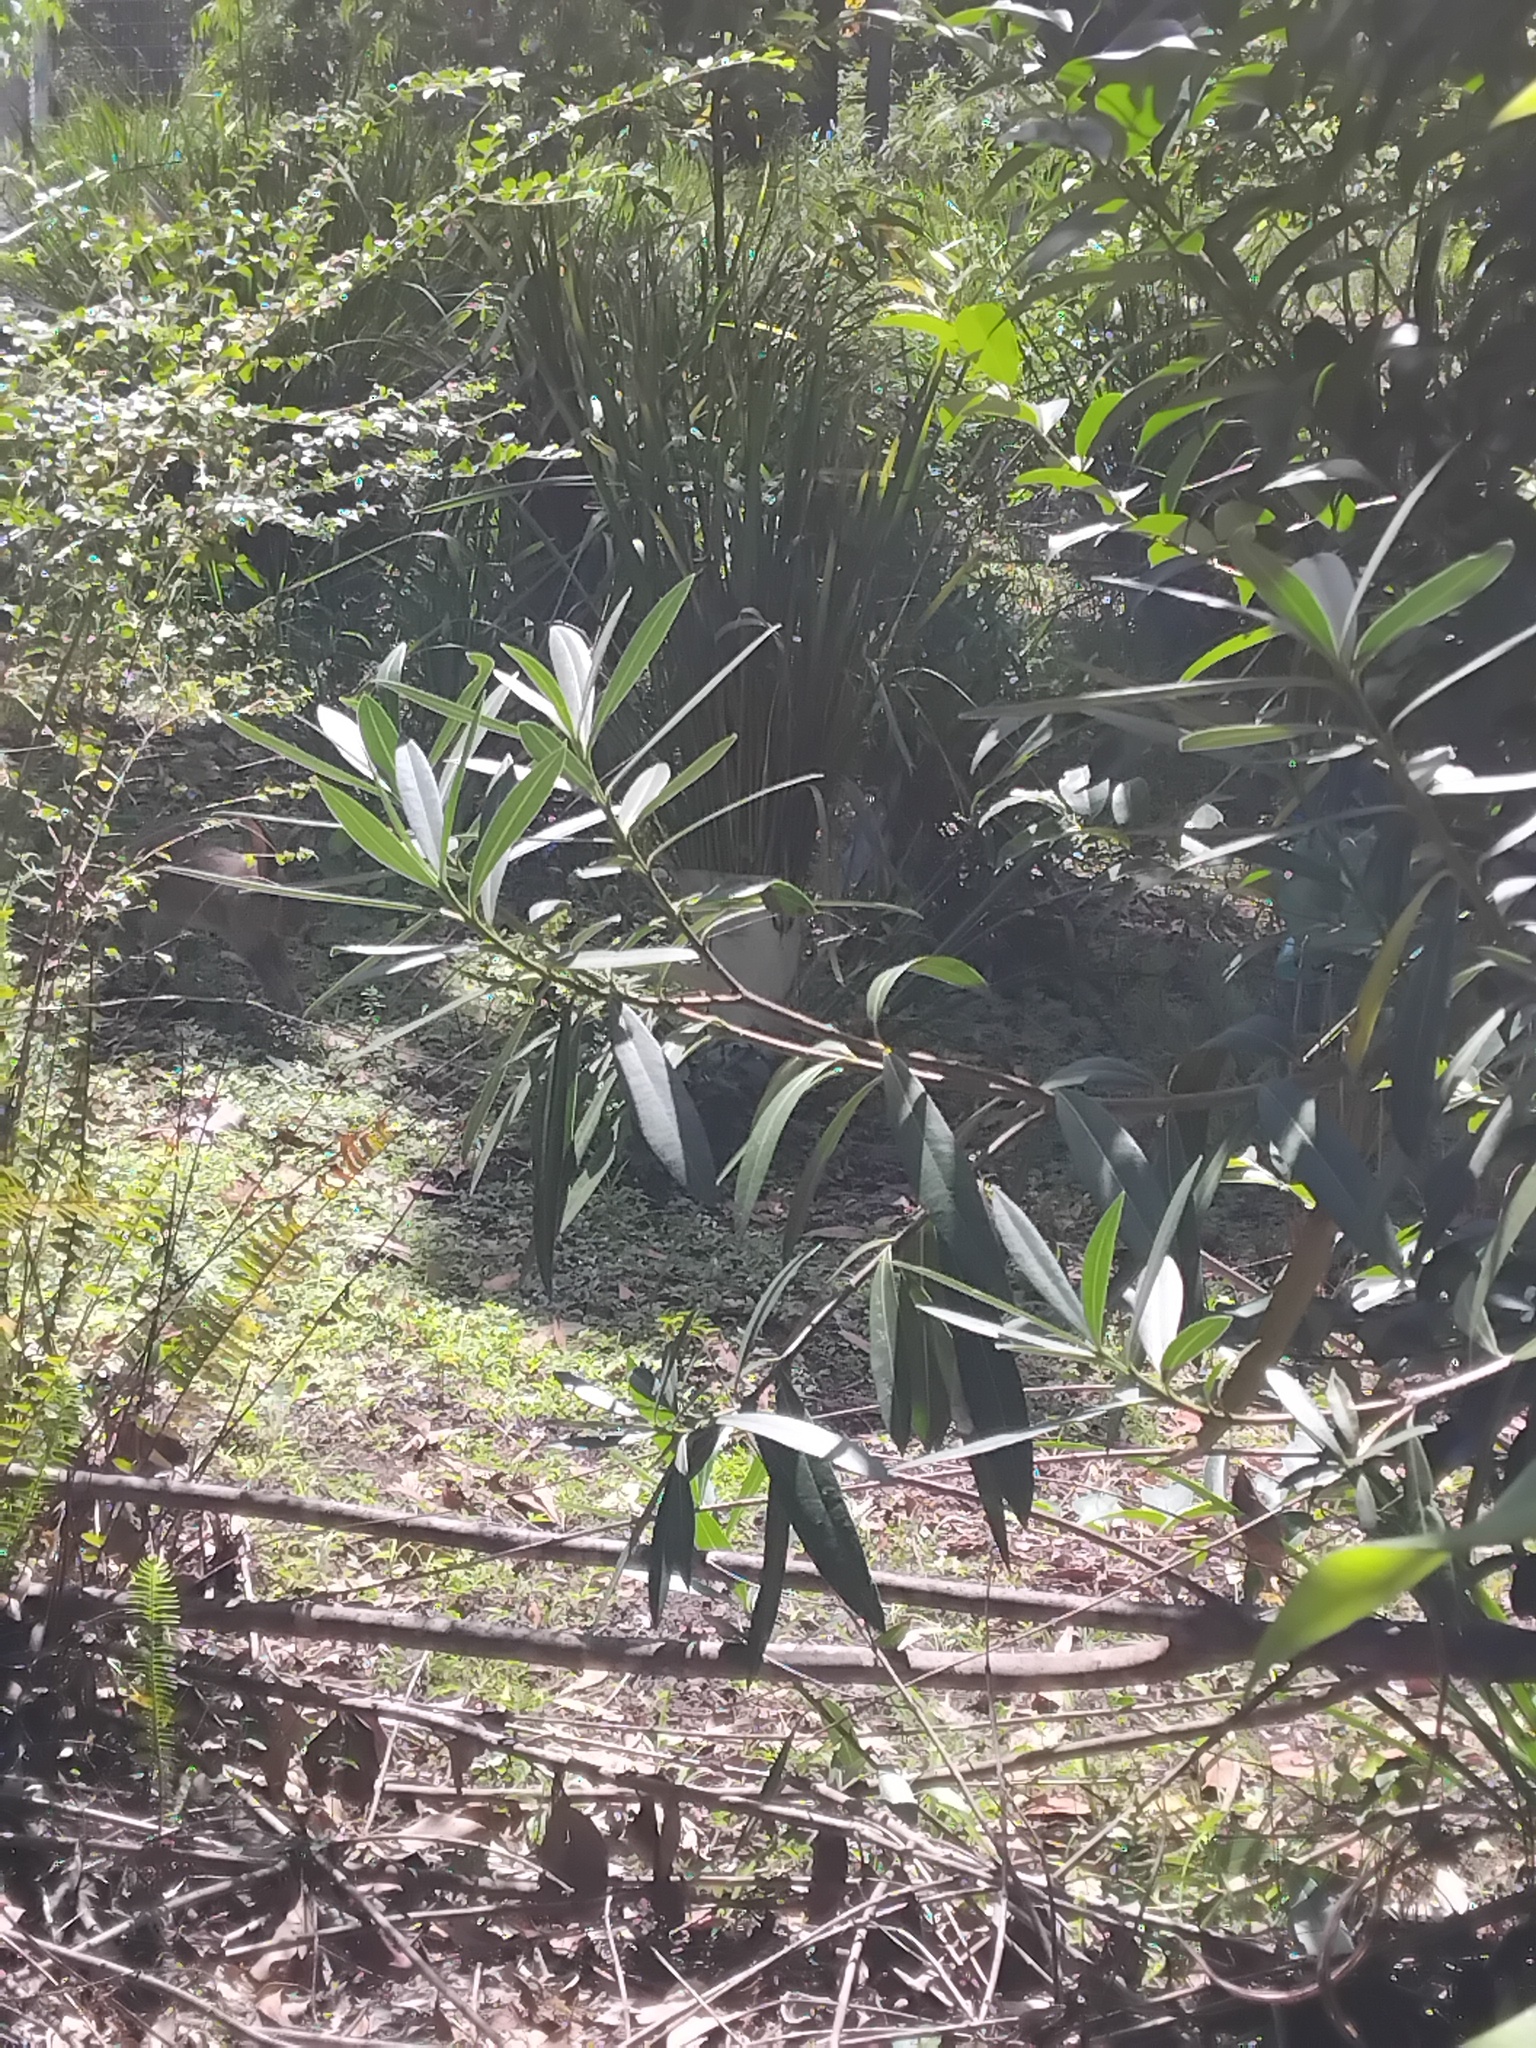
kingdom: Animalia
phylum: Chordata
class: Mammalia
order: Lagomorpha
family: Leporidae
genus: Oryctolagus
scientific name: Oryctolagus cuniculus
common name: European rabbit
